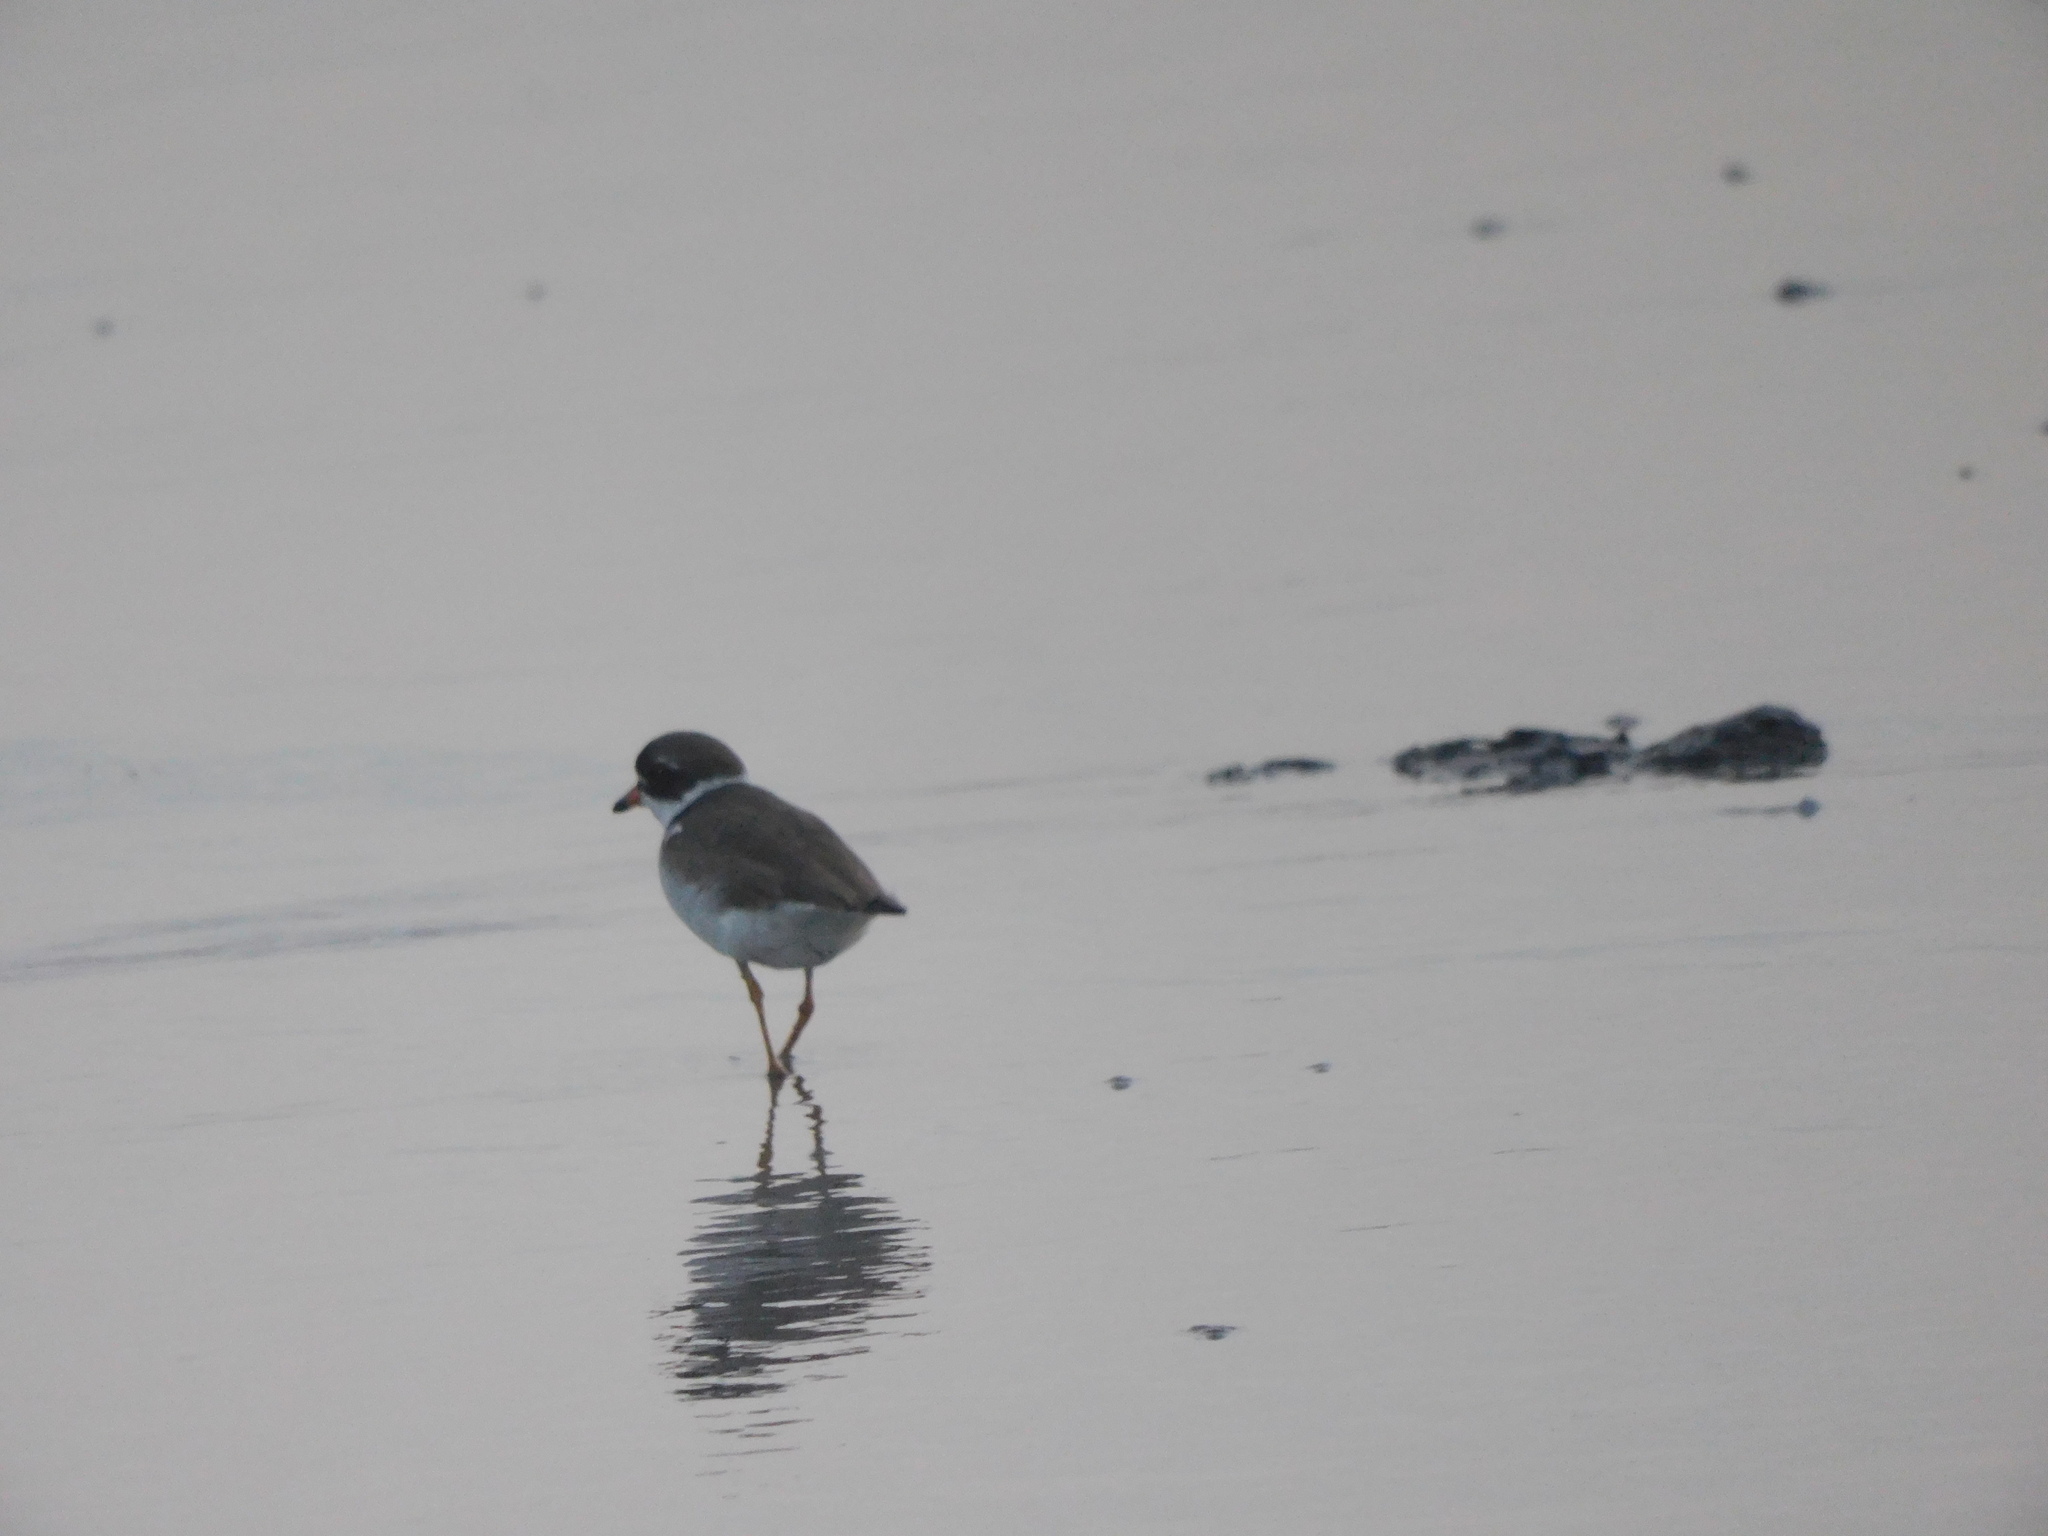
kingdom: Animalia
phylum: Chordata
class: Aves
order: Charadriiformes
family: Charadriidae
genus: Charadrius
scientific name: Charadrius semipalmatus
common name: Semipalmated plover
